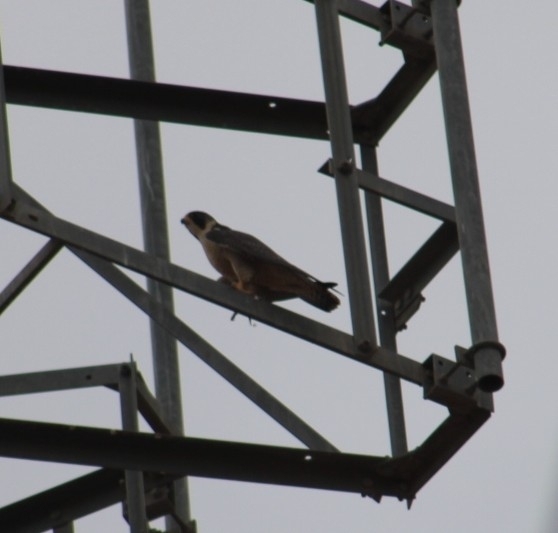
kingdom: Animalia
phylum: Chordata
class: Aves
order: Falconiformes
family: Falconidae
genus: Falco
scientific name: Falco peregrinus
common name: Peregrine falcon
